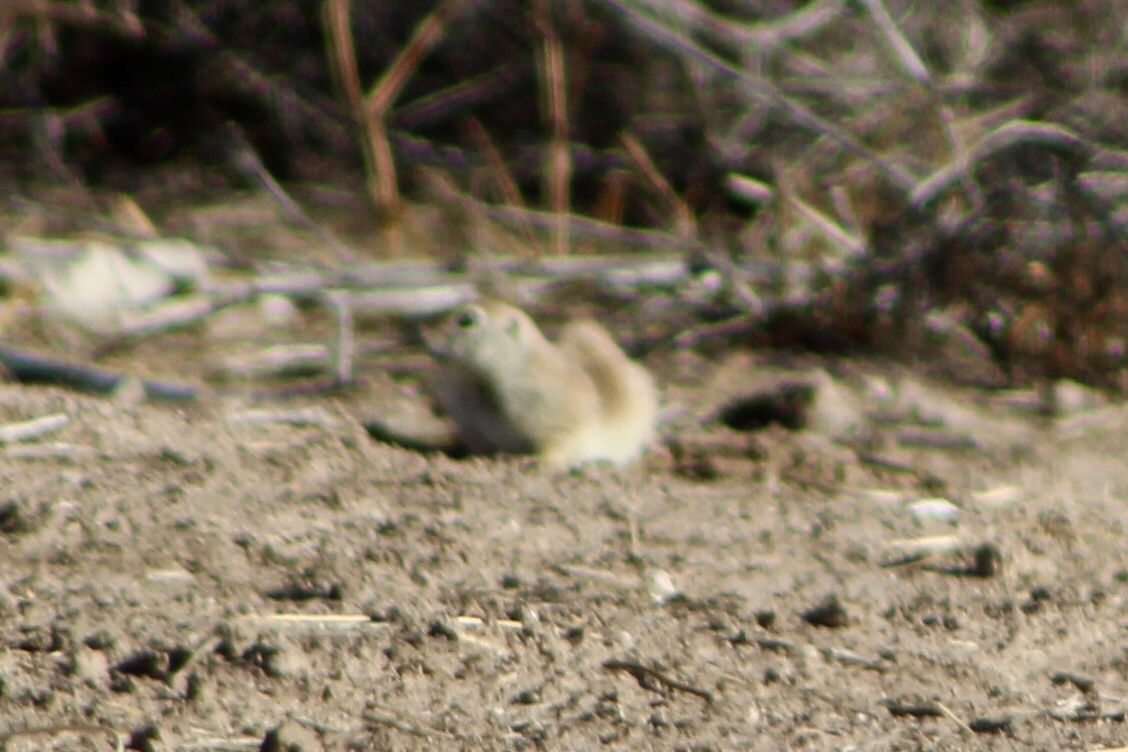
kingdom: Animalia
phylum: Chordata
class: Mammalia
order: Rodentia
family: Sciuridae
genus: Xerospermophilus
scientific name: Xerospermophilus tereticaudus
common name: Round-tailed ground squirrel
